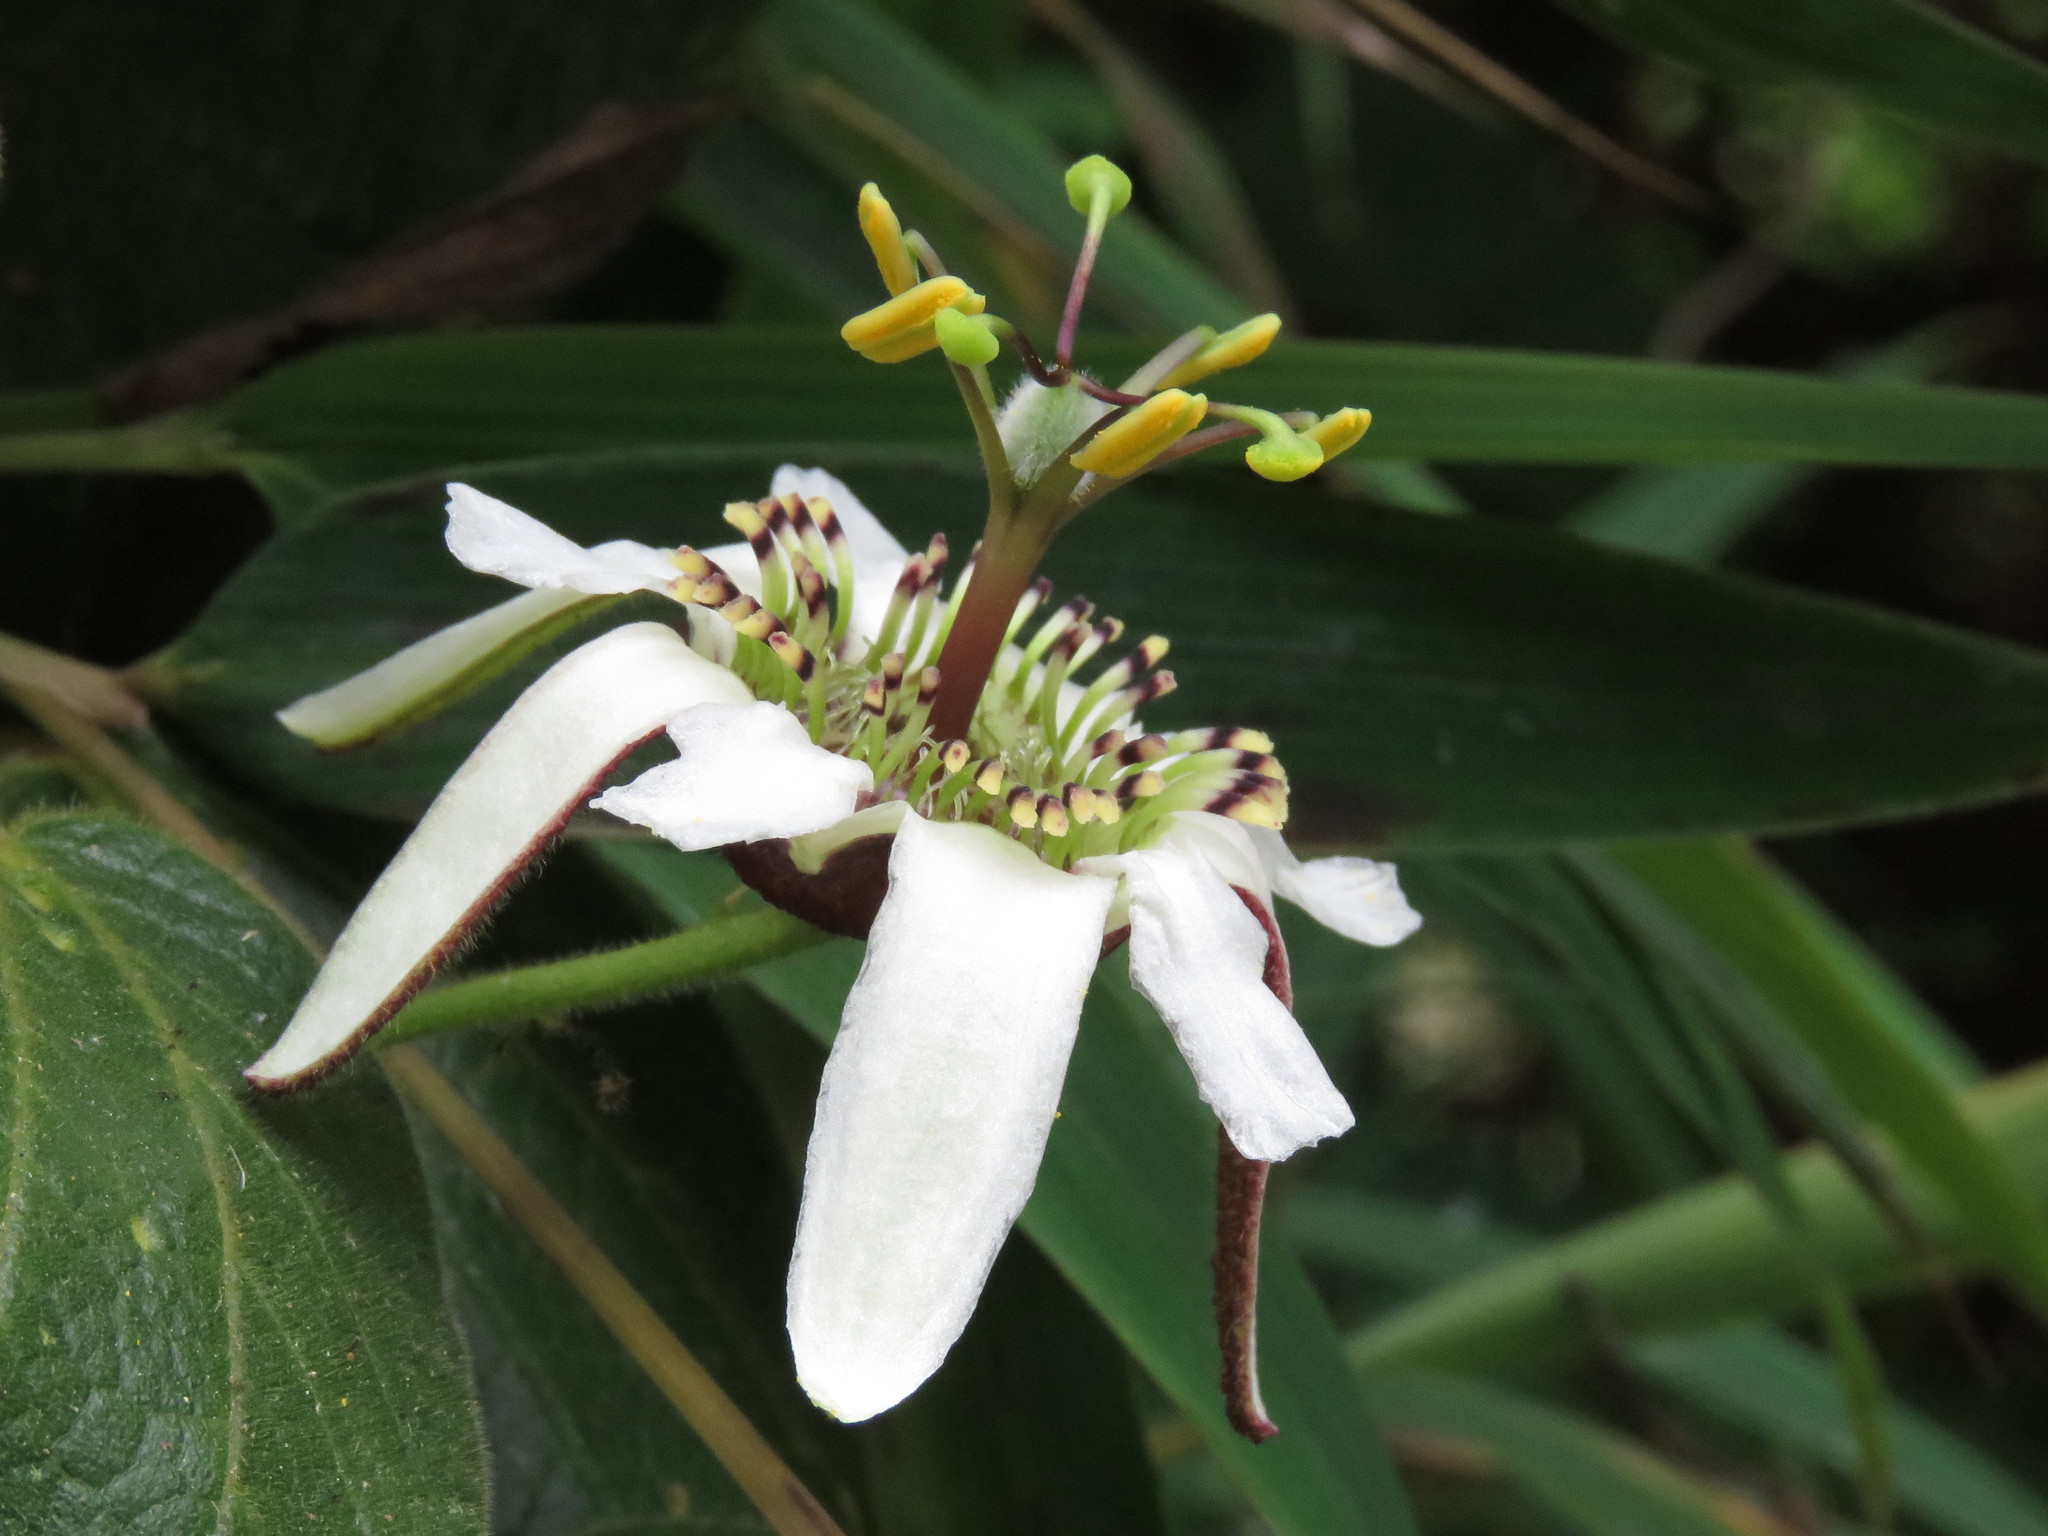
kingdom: Plantae
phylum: Tracheophyta
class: Magnoliopsida
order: Malpighiales
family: Passifloraceae
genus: Passiflora
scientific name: Passiflora bogotensis
